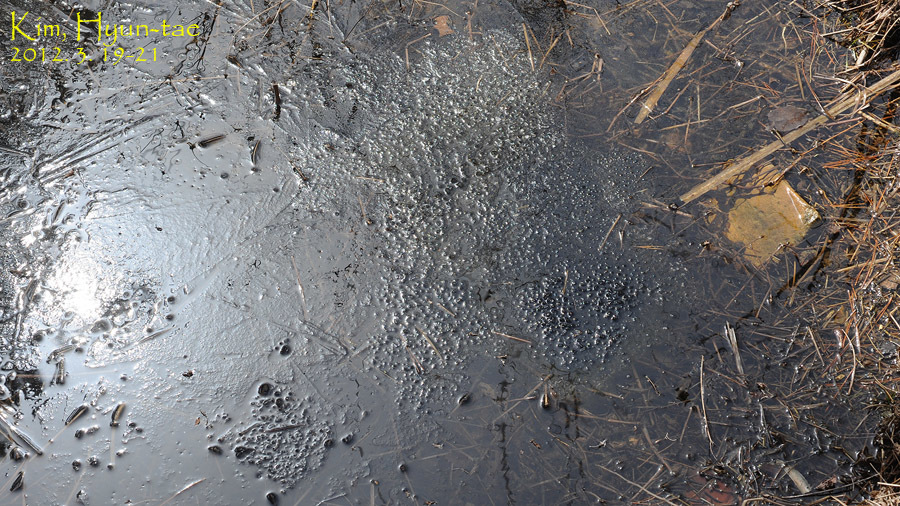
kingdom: Animalia
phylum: Chordata
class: Amphibia
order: Anura
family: Ranidae
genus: Rana
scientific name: Rana uenoi
